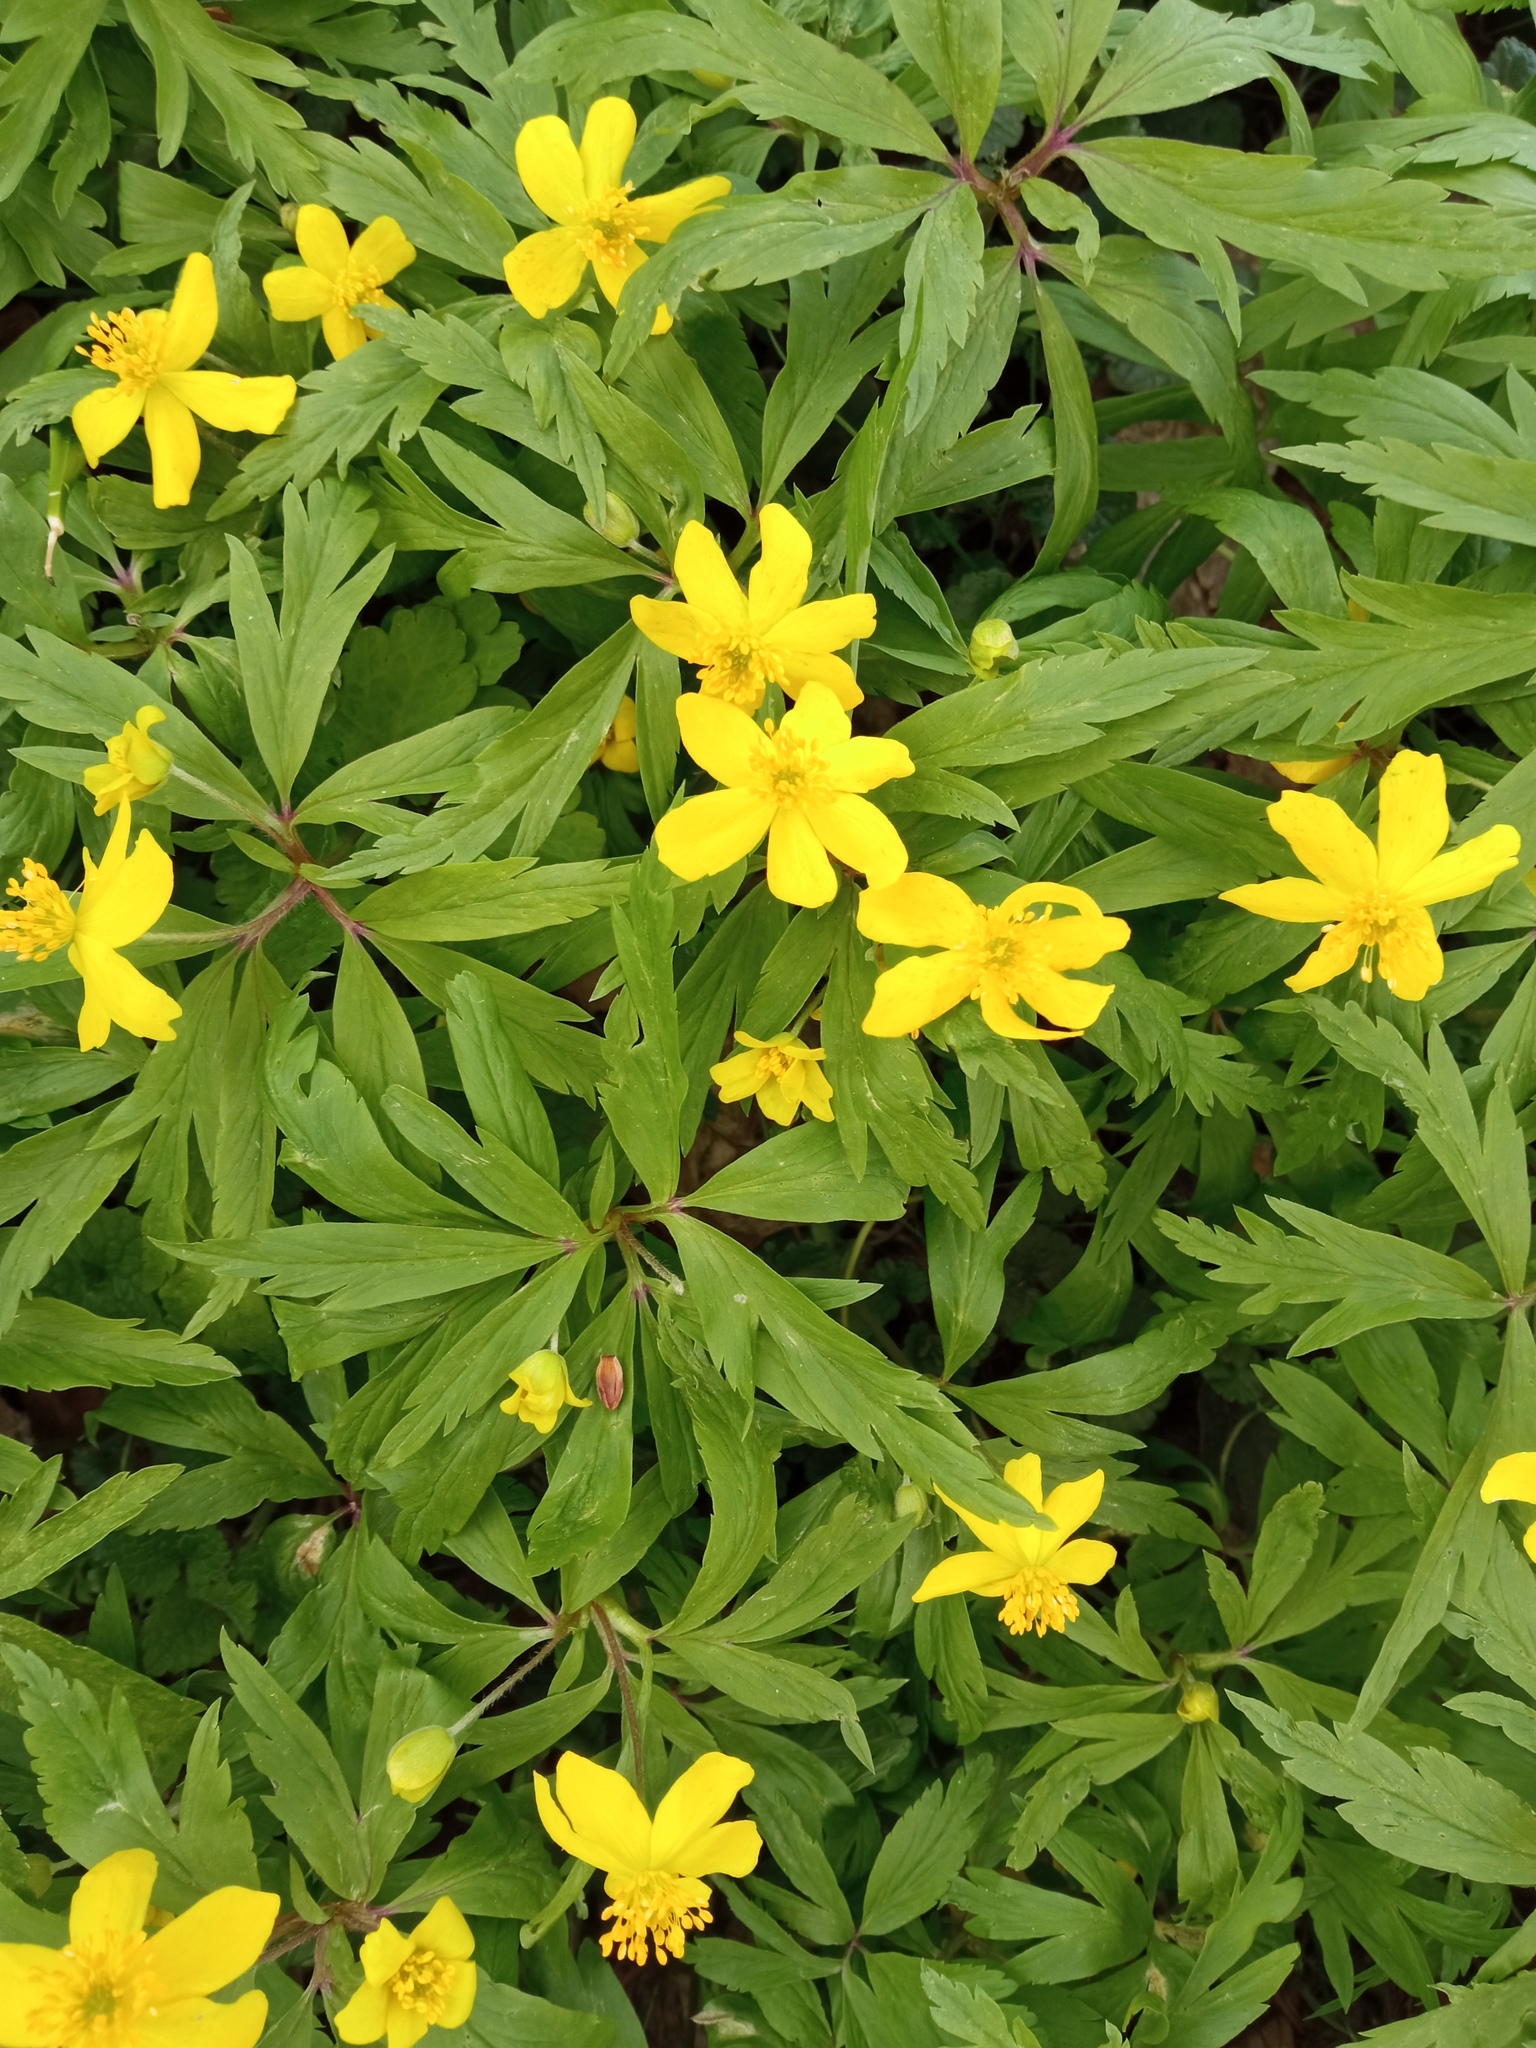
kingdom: Plantae
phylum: Tracheophyta
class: Magnoliopsida
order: Ranunculales
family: Ranunculaceae
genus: Anemone
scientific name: Anemone ranunculoides
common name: Yellow anemone
